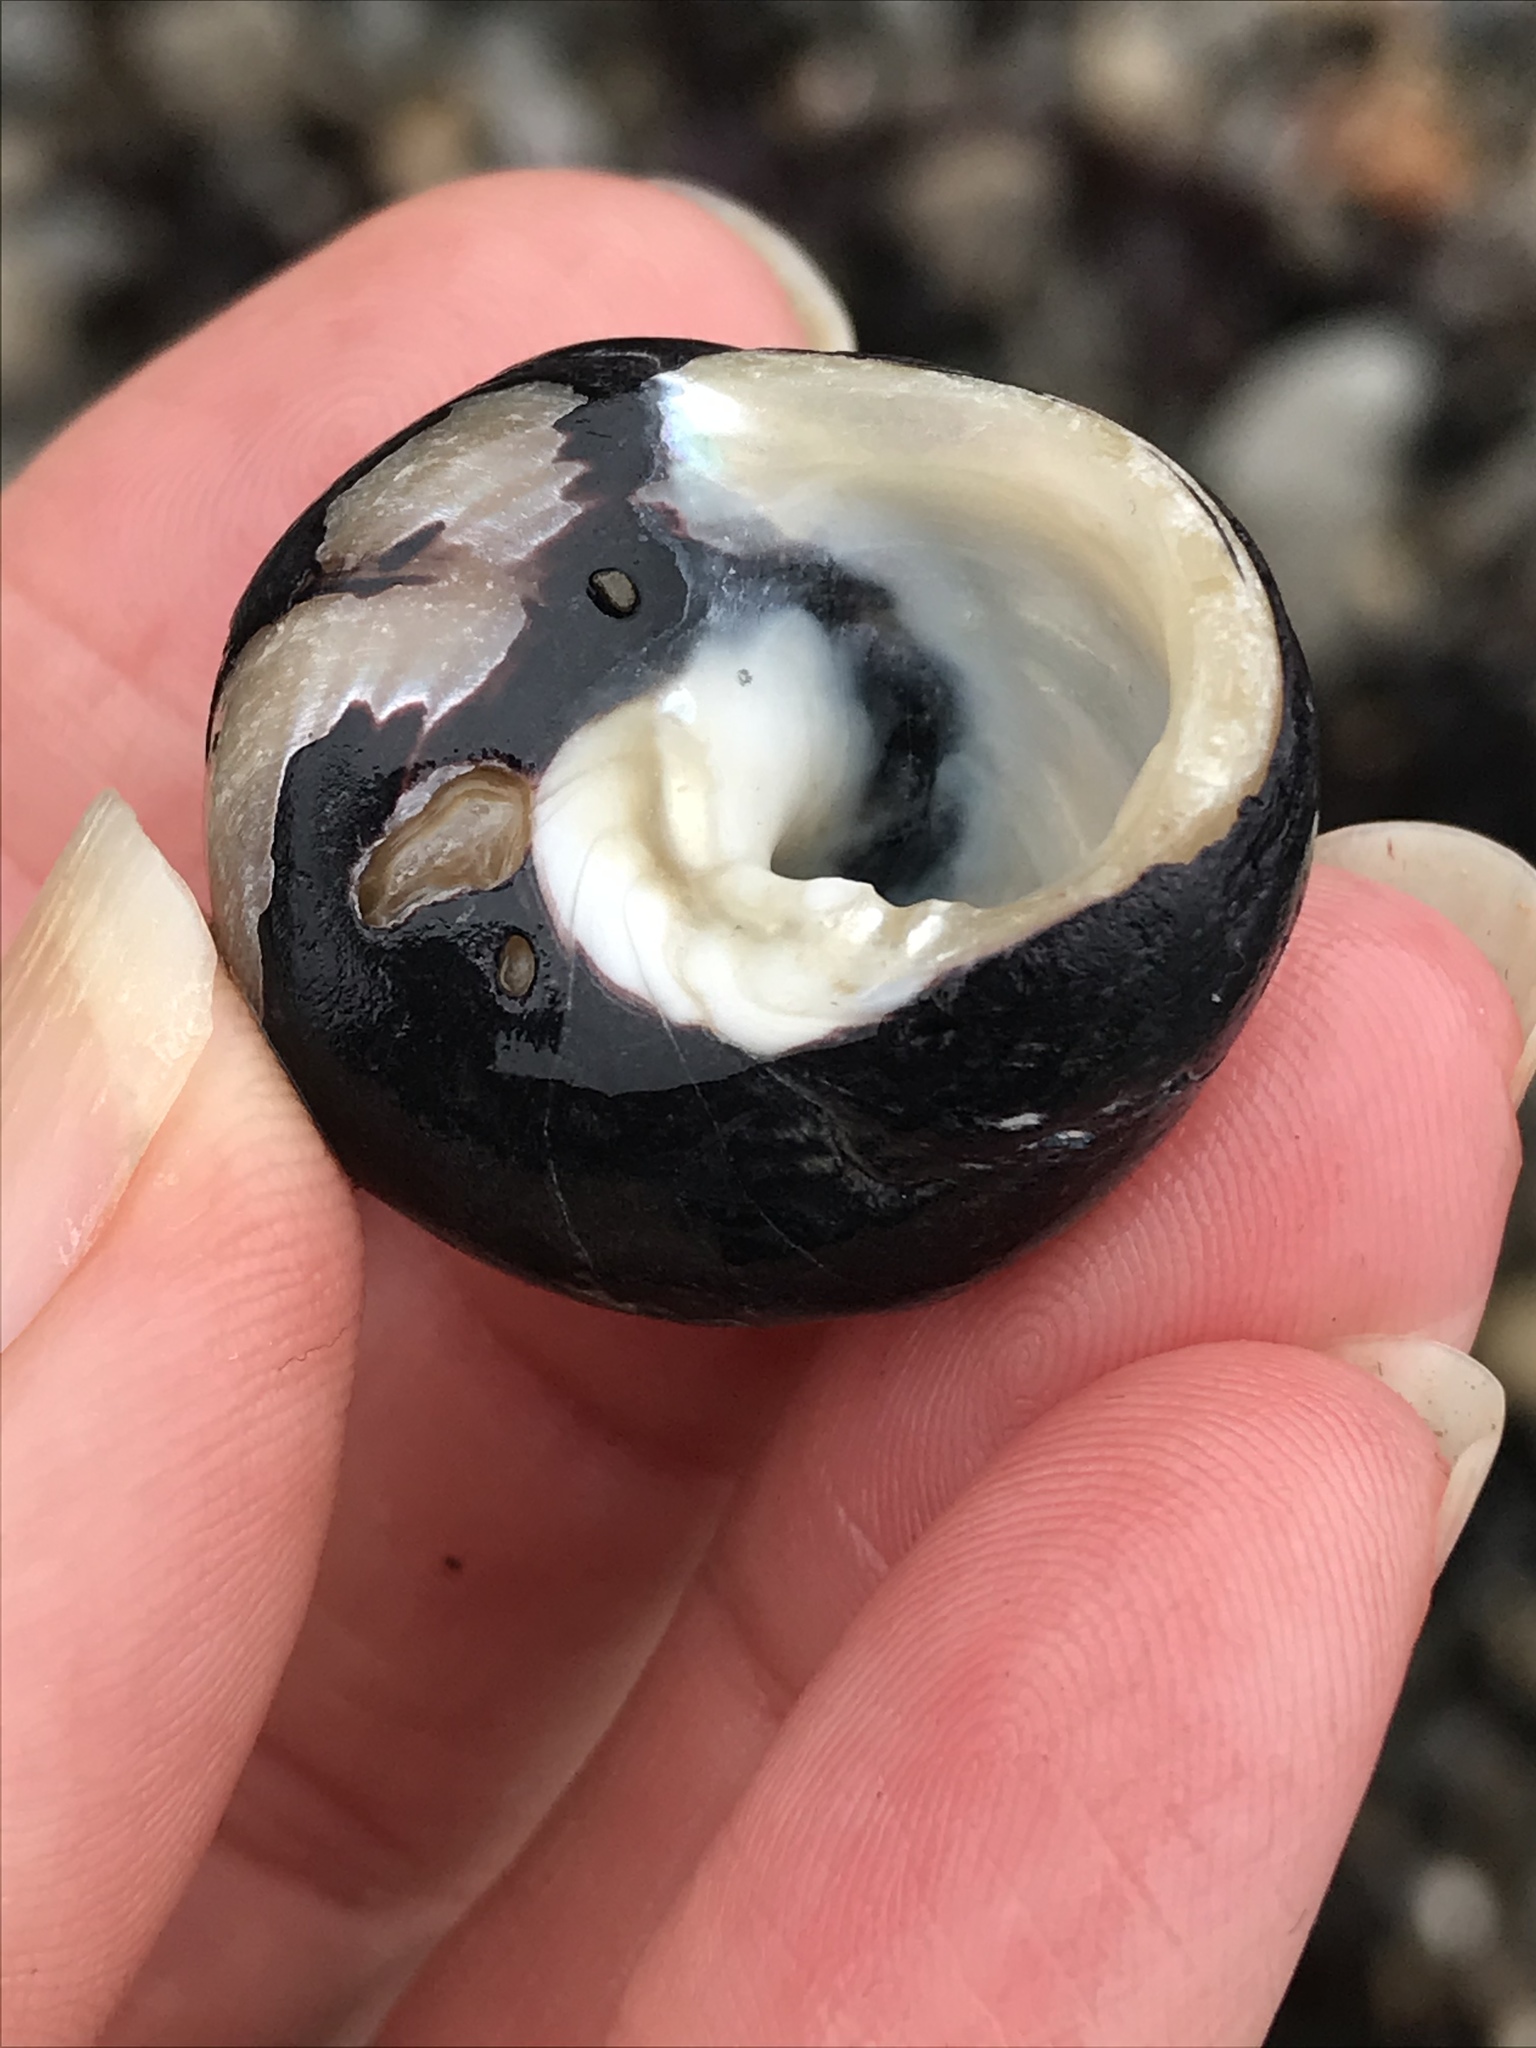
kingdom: Animalia
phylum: Mollusca
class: Gastropoda
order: Trochida
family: Tegulidae
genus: Tegula
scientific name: Tegula funebralis
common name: Black tegula
